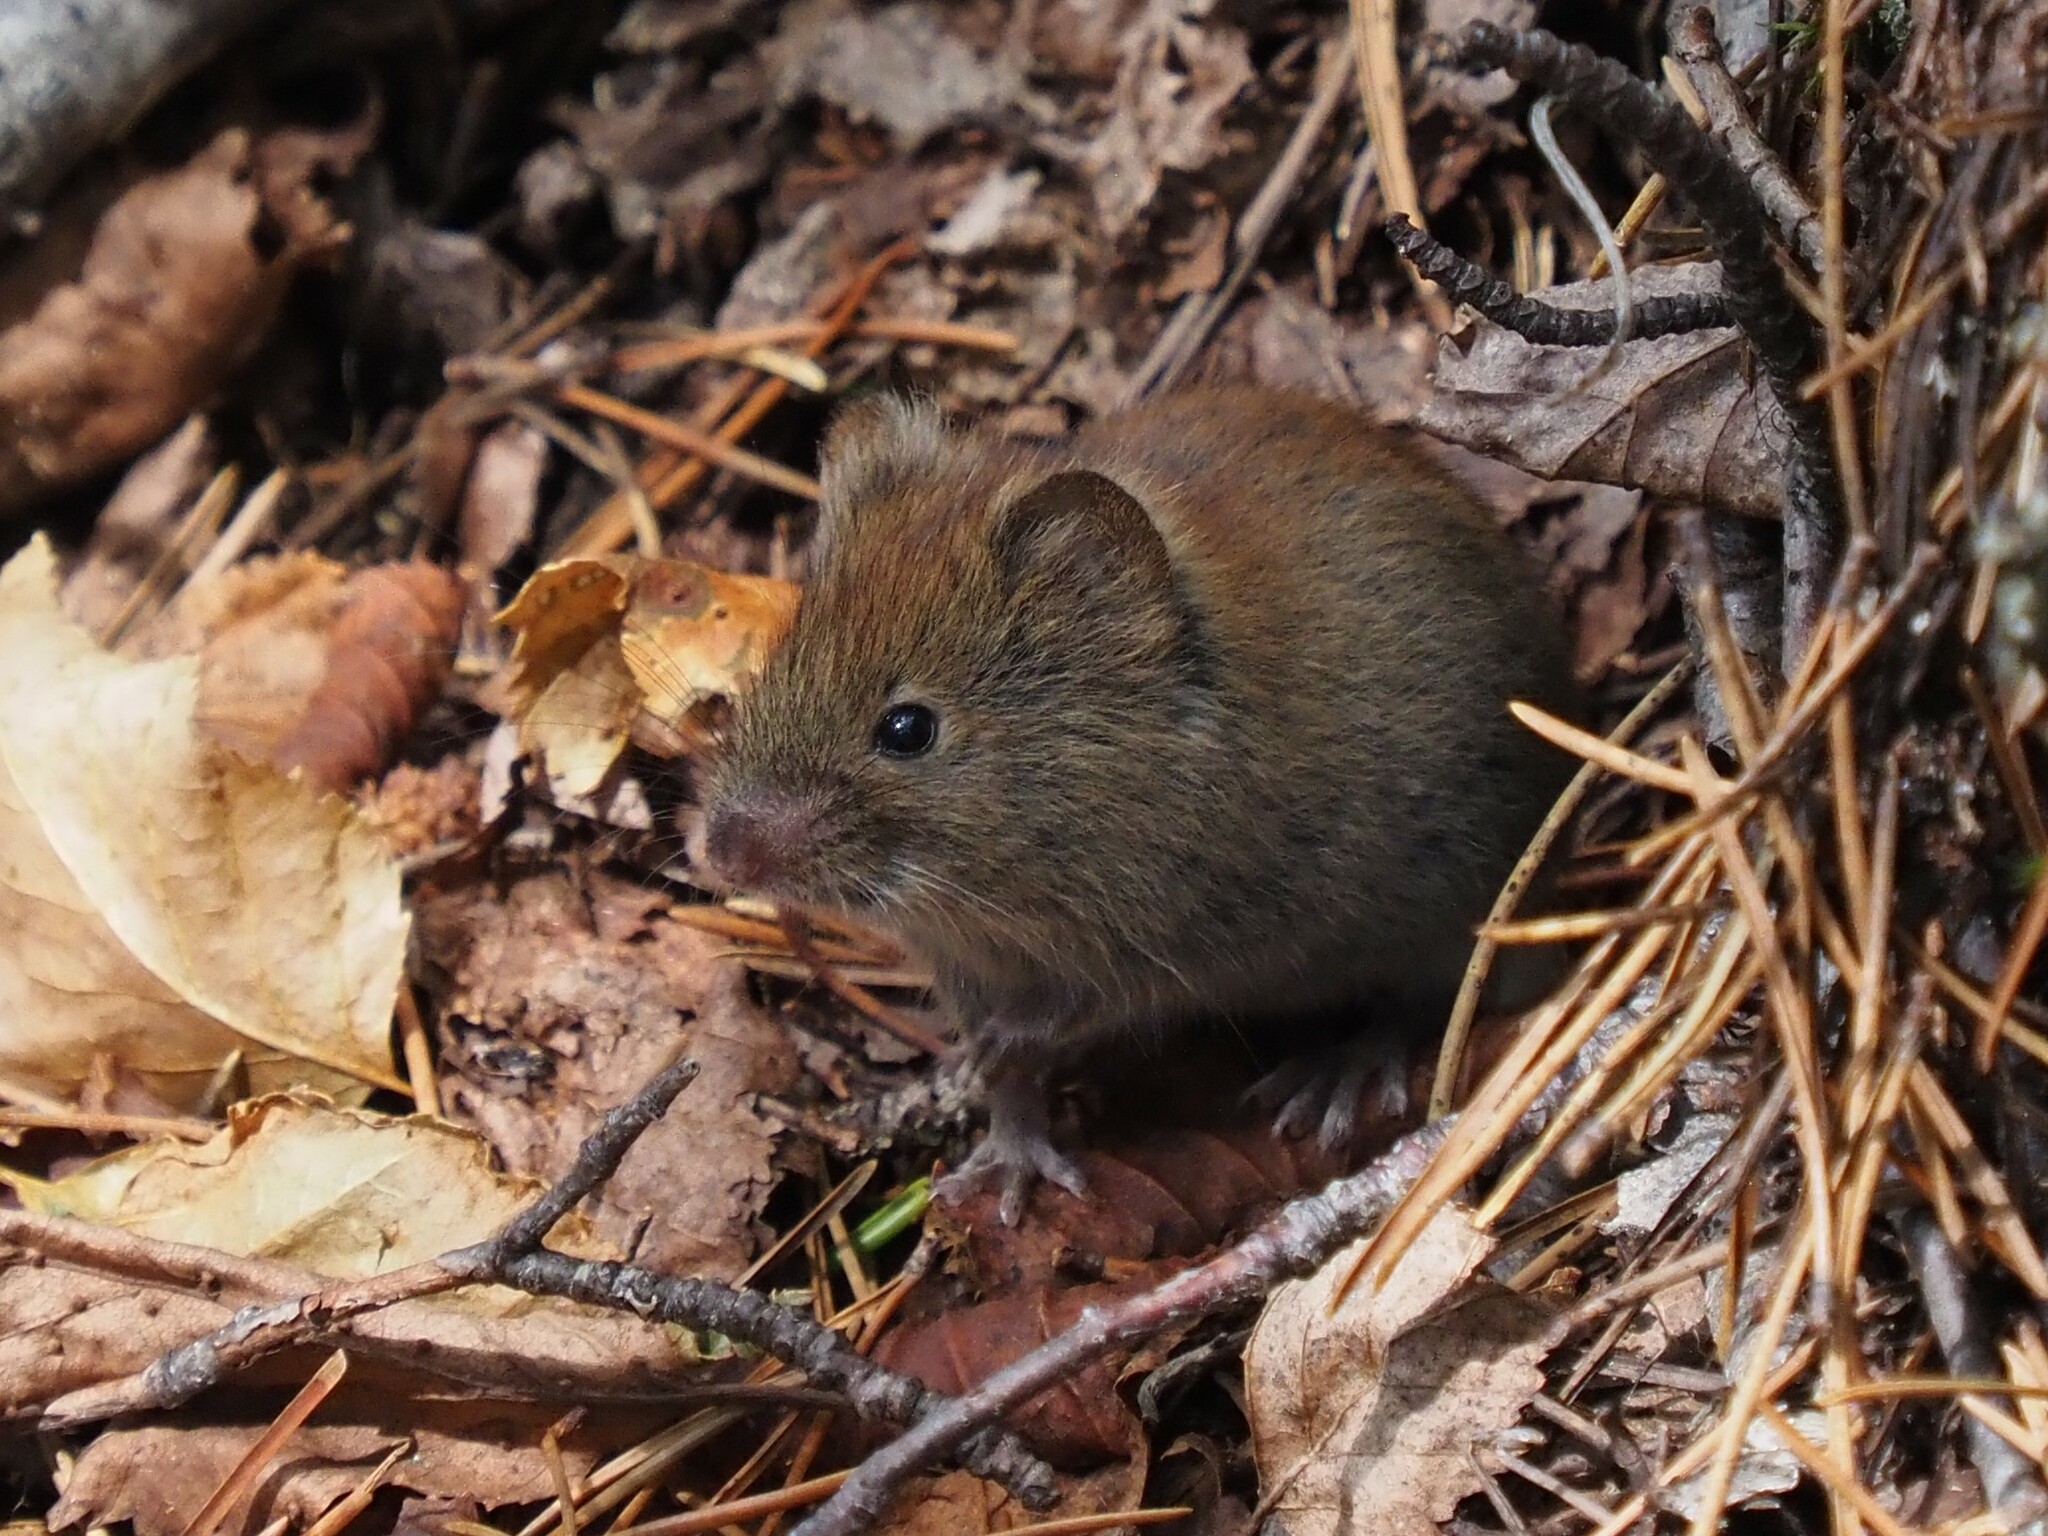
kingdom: Animalia
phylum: Chordata
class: Mammalia
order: Rodentia
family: Cricetidae
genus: Myodes
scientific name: Myodes rutilus
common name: Northern red-backed vole
